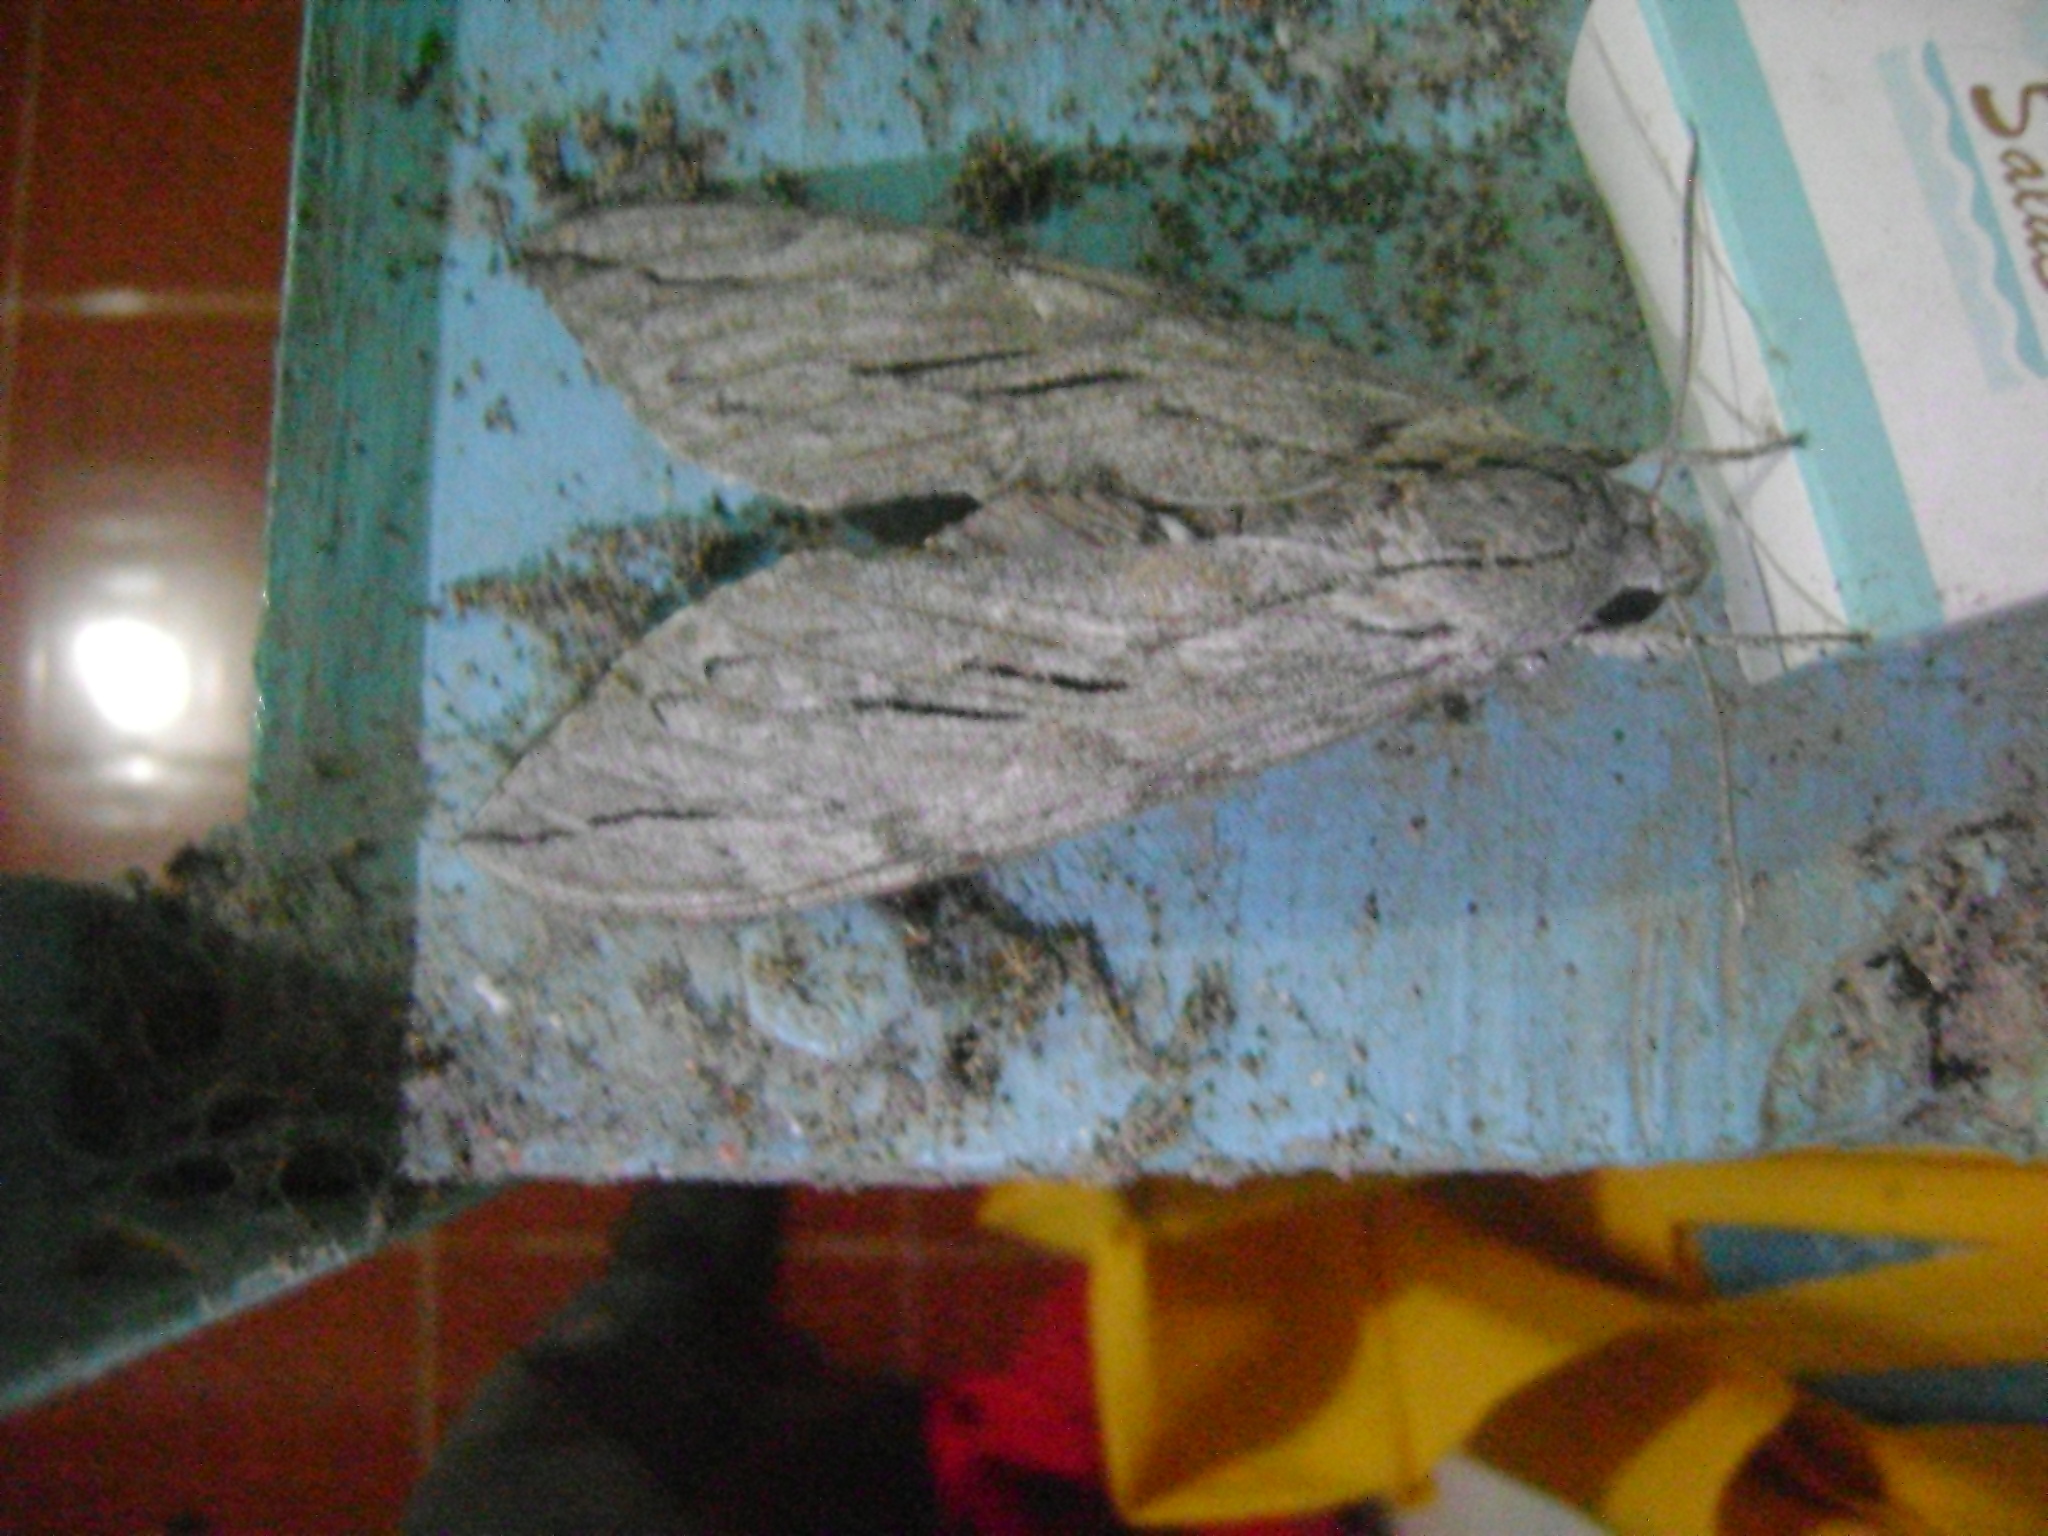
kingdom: Animalia
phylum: Arthropoda
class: Insecta
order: Lepidoptera
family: Sphingidae
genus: Sphinx
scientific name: Sphinx leucophaeata
